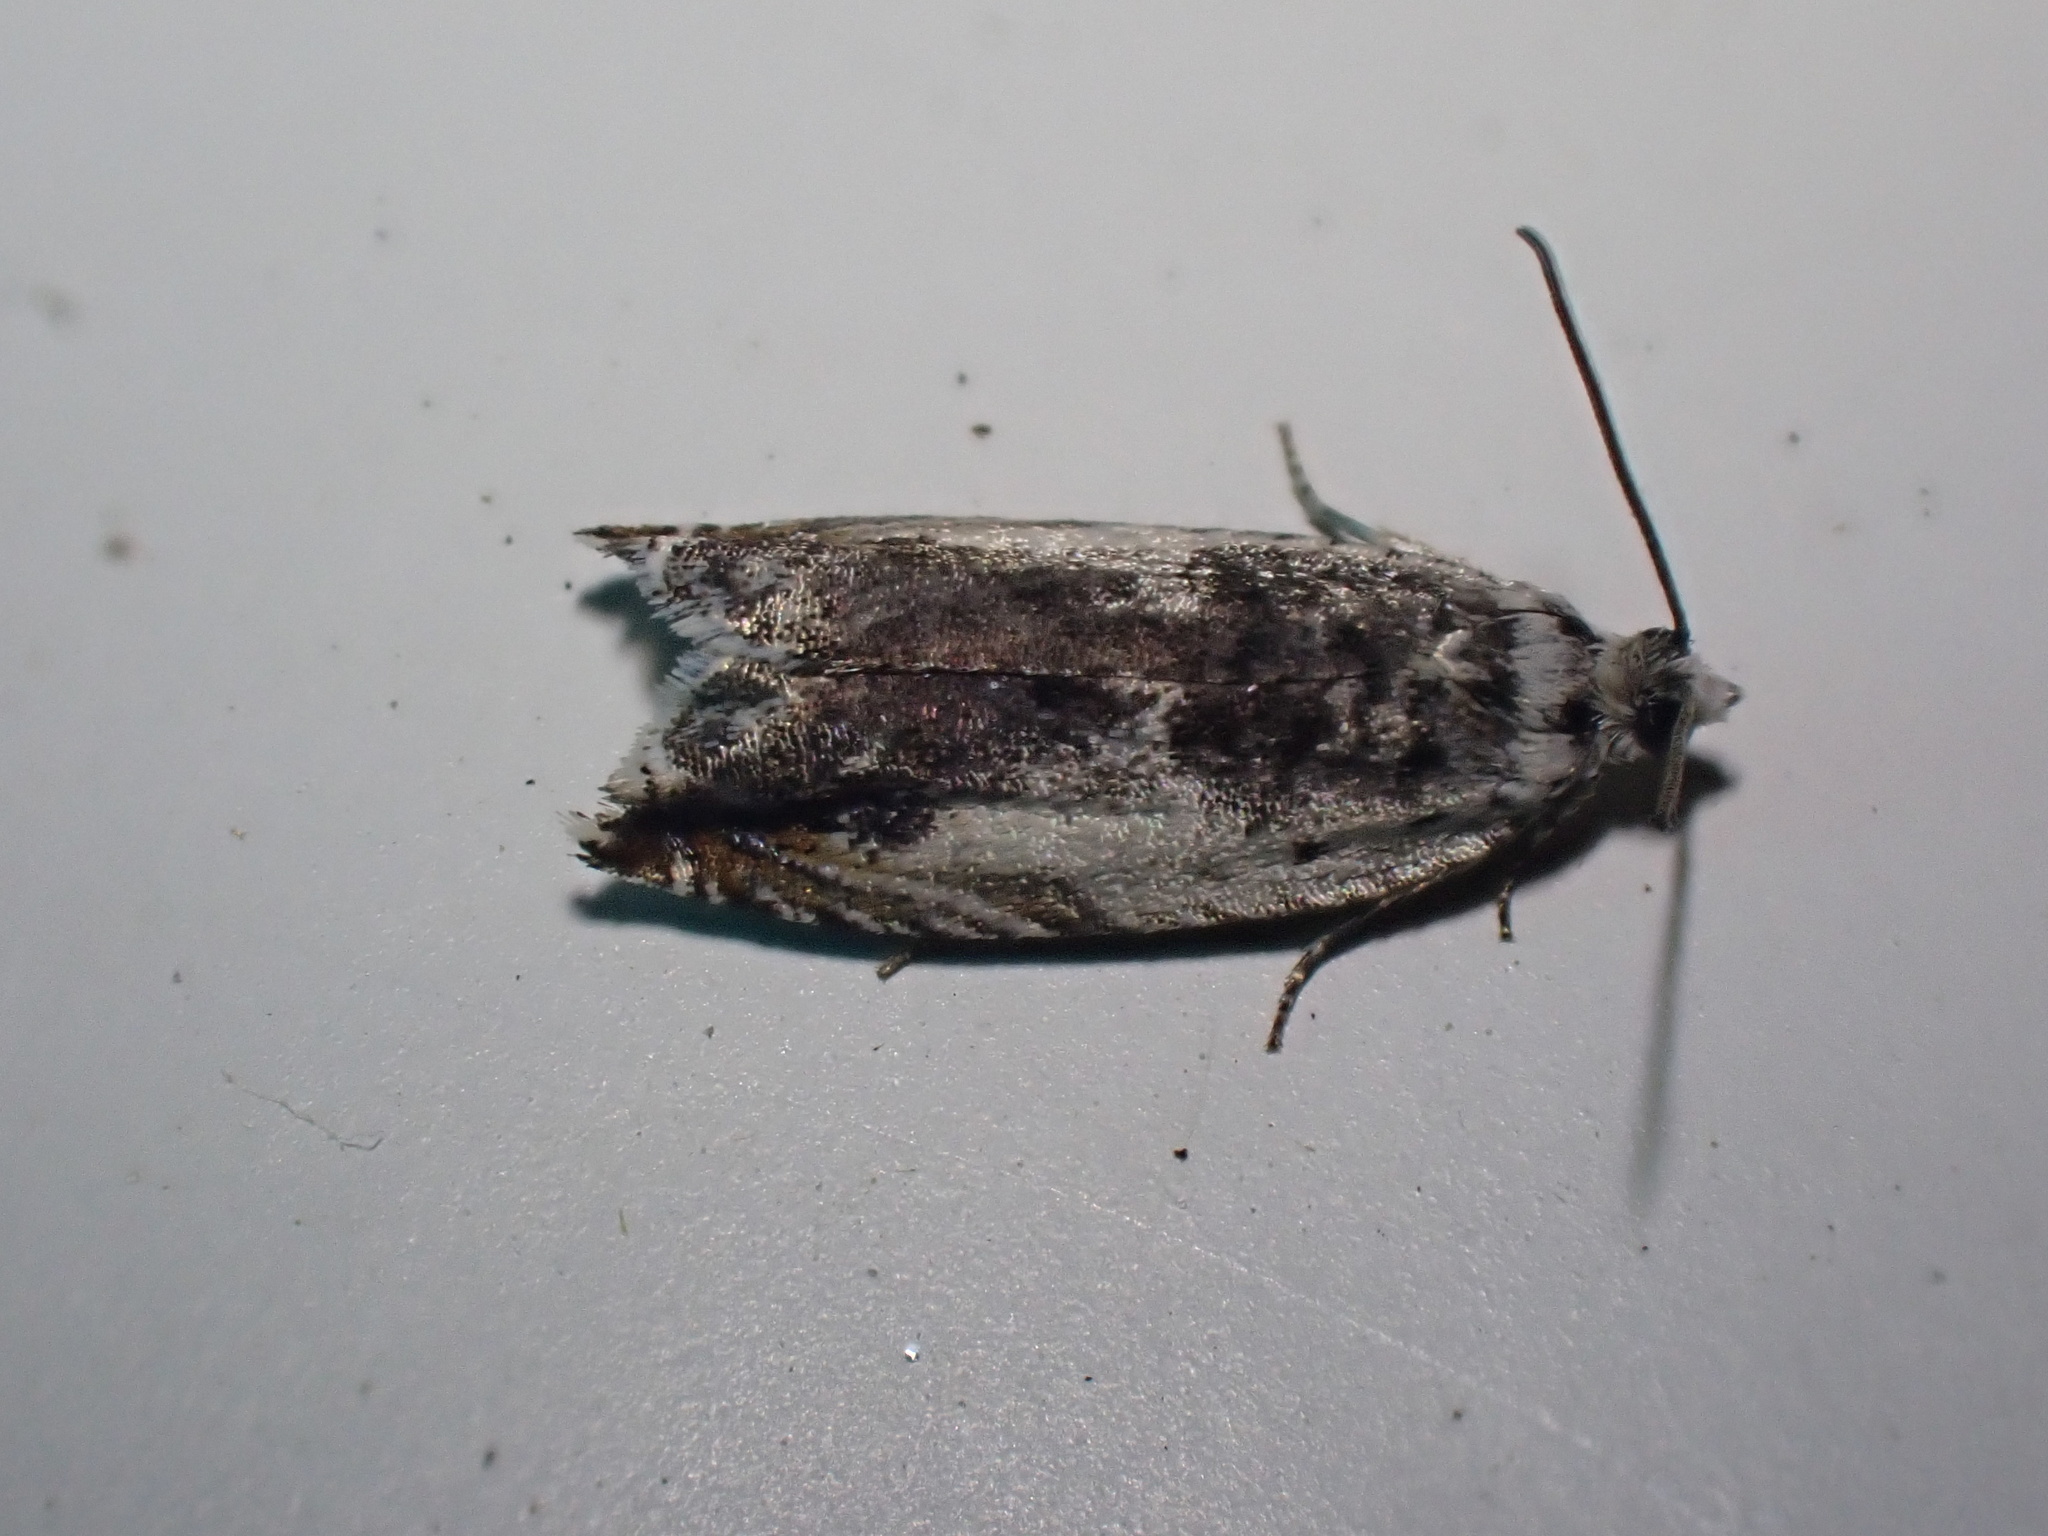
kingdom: Animalia
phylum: Arthropoda
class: Insecta
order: Lepidoptera
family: Tortricidae
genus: Ancylis
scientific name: Ancylis laetana
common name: Aspen roller
